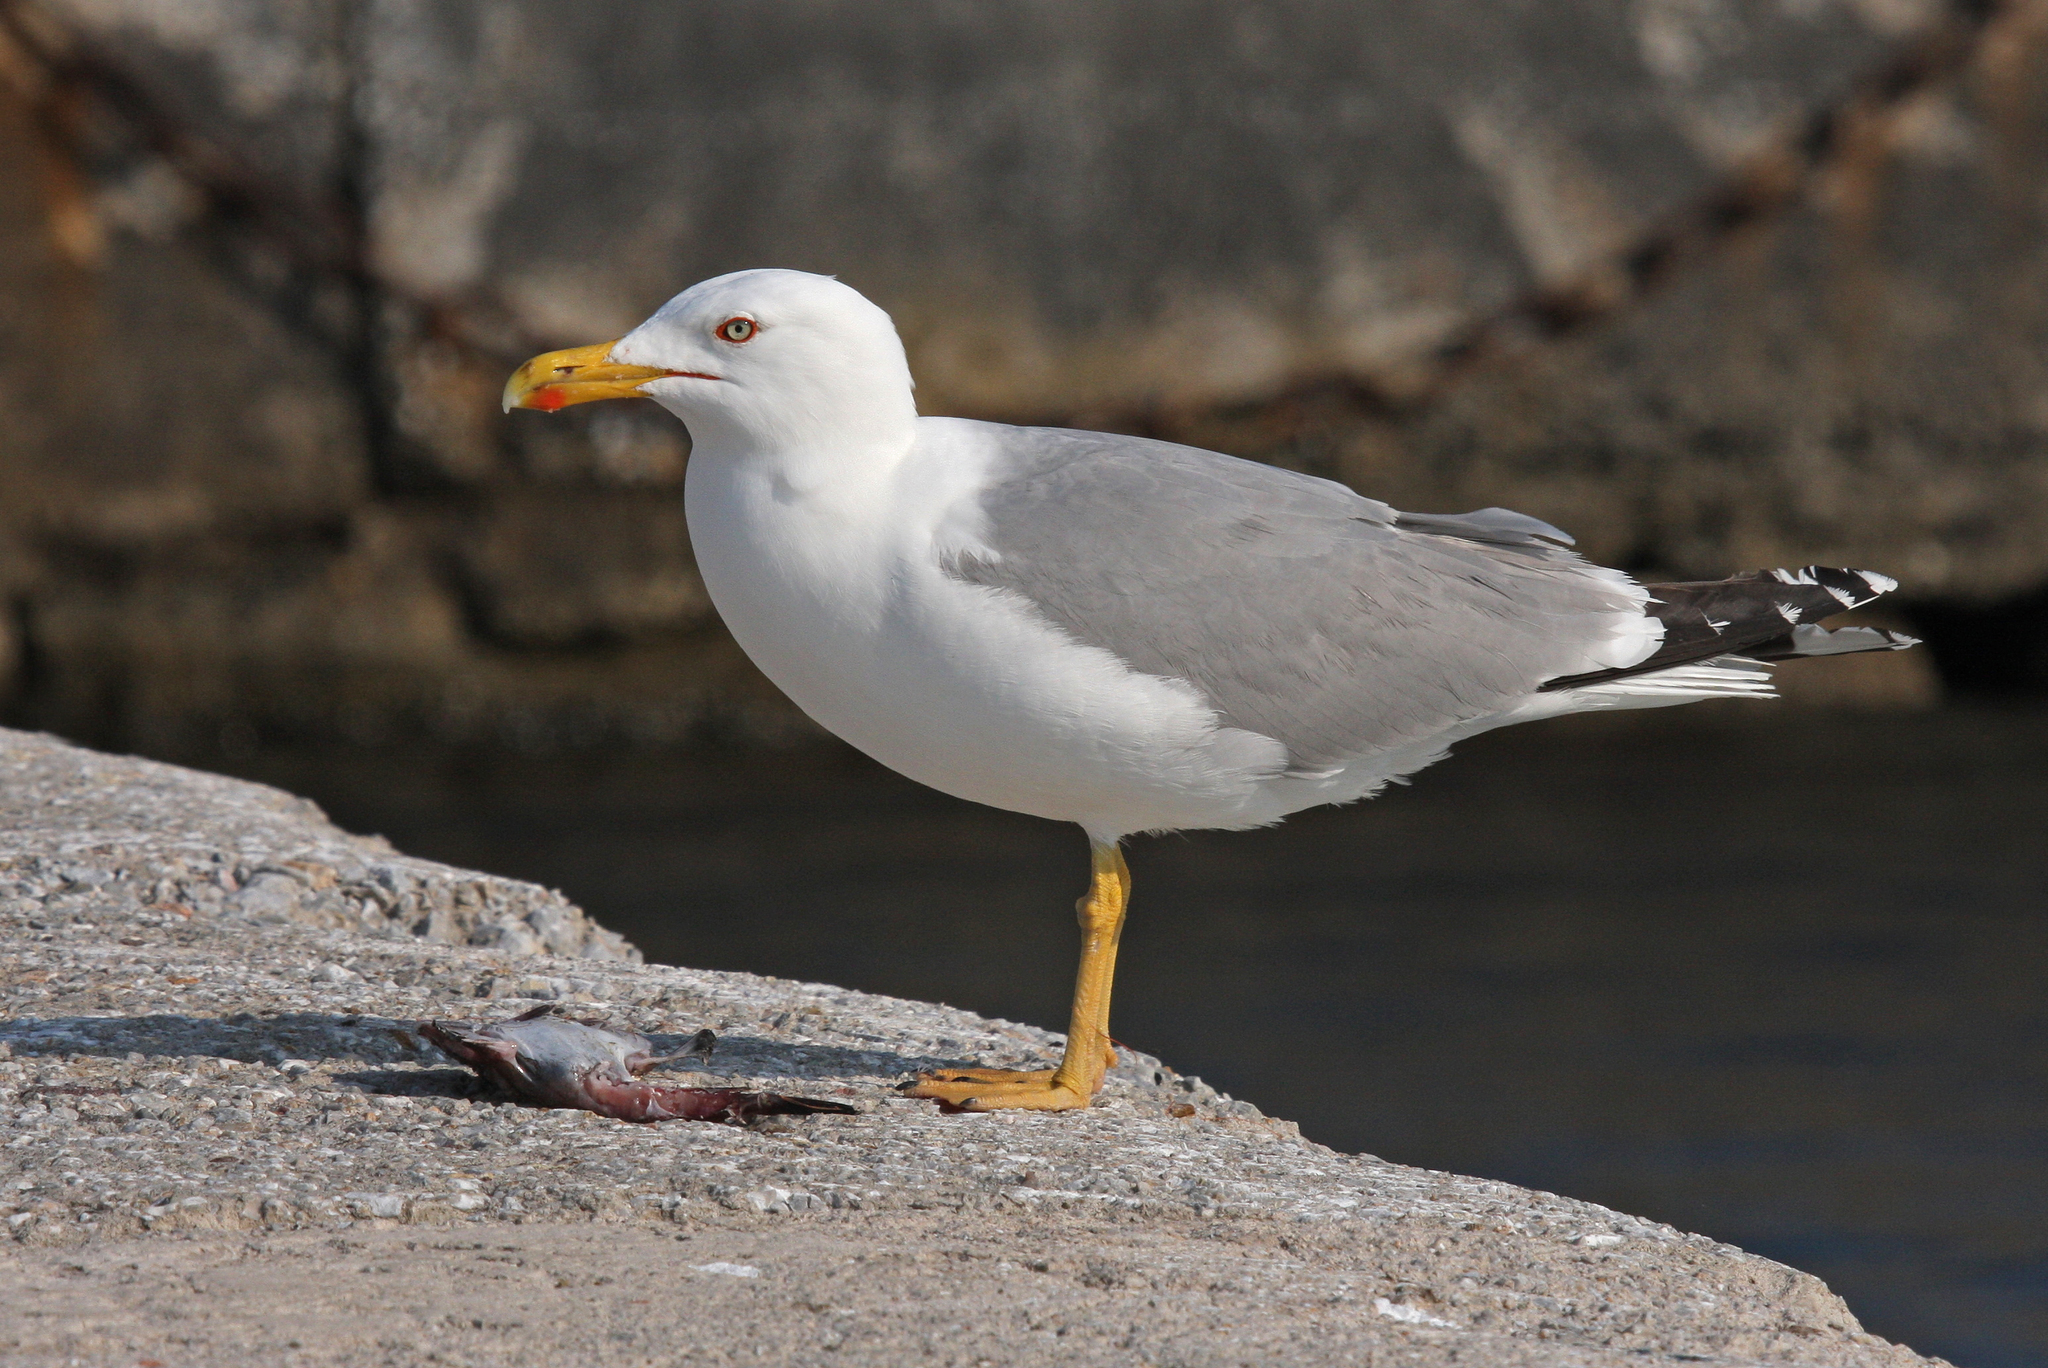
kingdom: Animalia
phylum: Chordata
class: Aves
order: Charadriiformes
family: Laridae
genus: Larus
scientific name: Larus michahellis
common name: Yellow-legged gull
